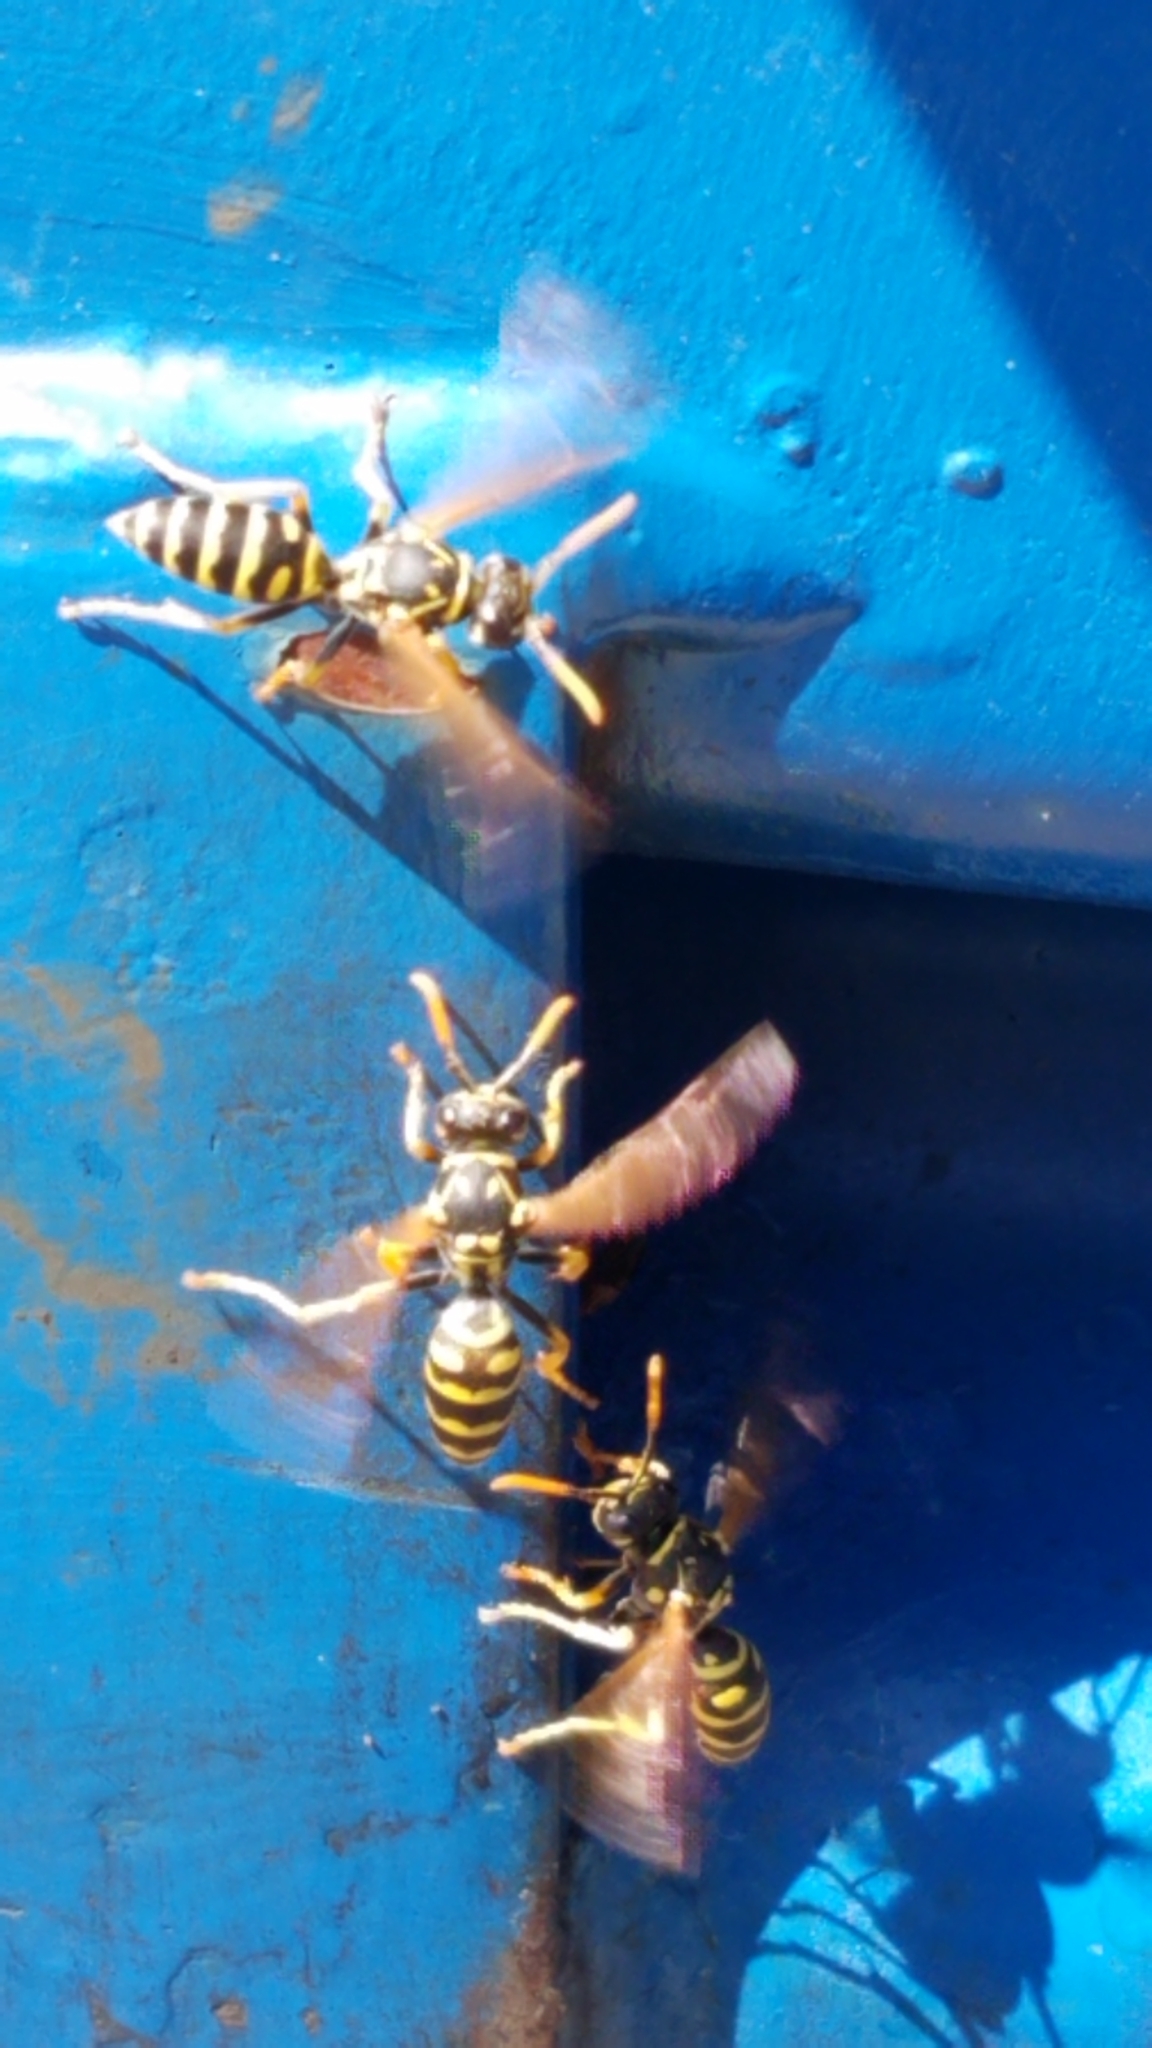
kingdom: Animalia
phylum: Arthropoda
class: Insecta
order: Hymenoptera
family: Eumenidae
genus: Polistes
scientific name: Polistes dominula
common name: Paper wasp
